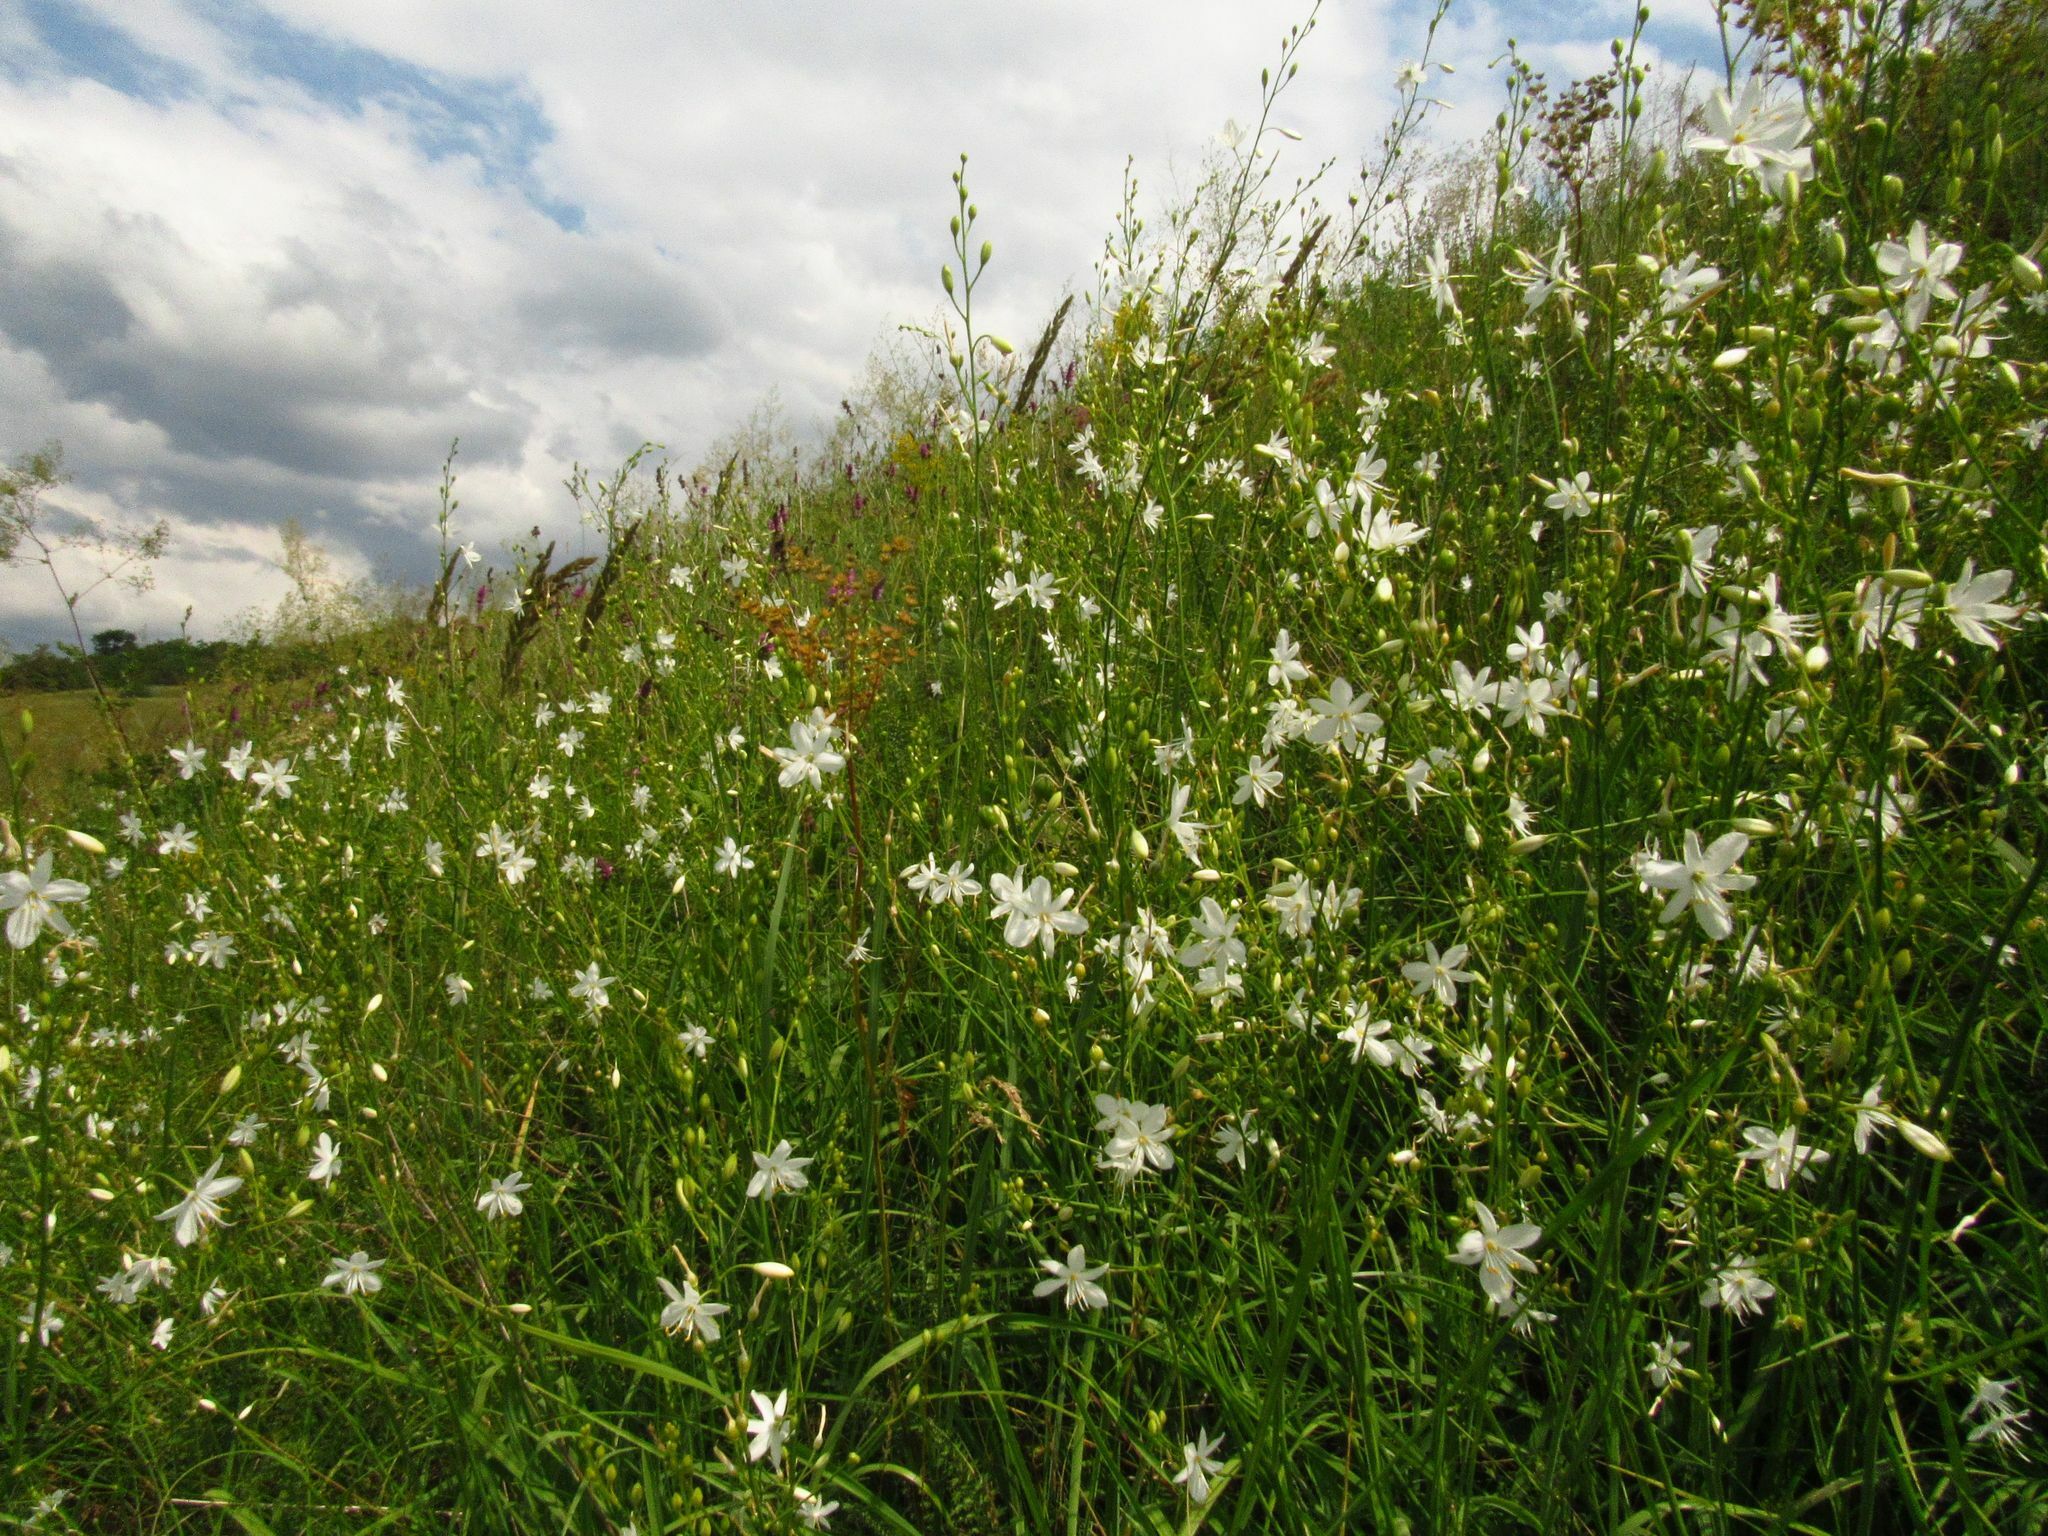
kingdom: Plantae
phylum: Tracheophyta
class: Liliopsida
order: Asparagales
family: Asparagaceae
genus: Anthericum
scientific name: Anthericum ramosum
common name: Branched st. bernard's-lily
